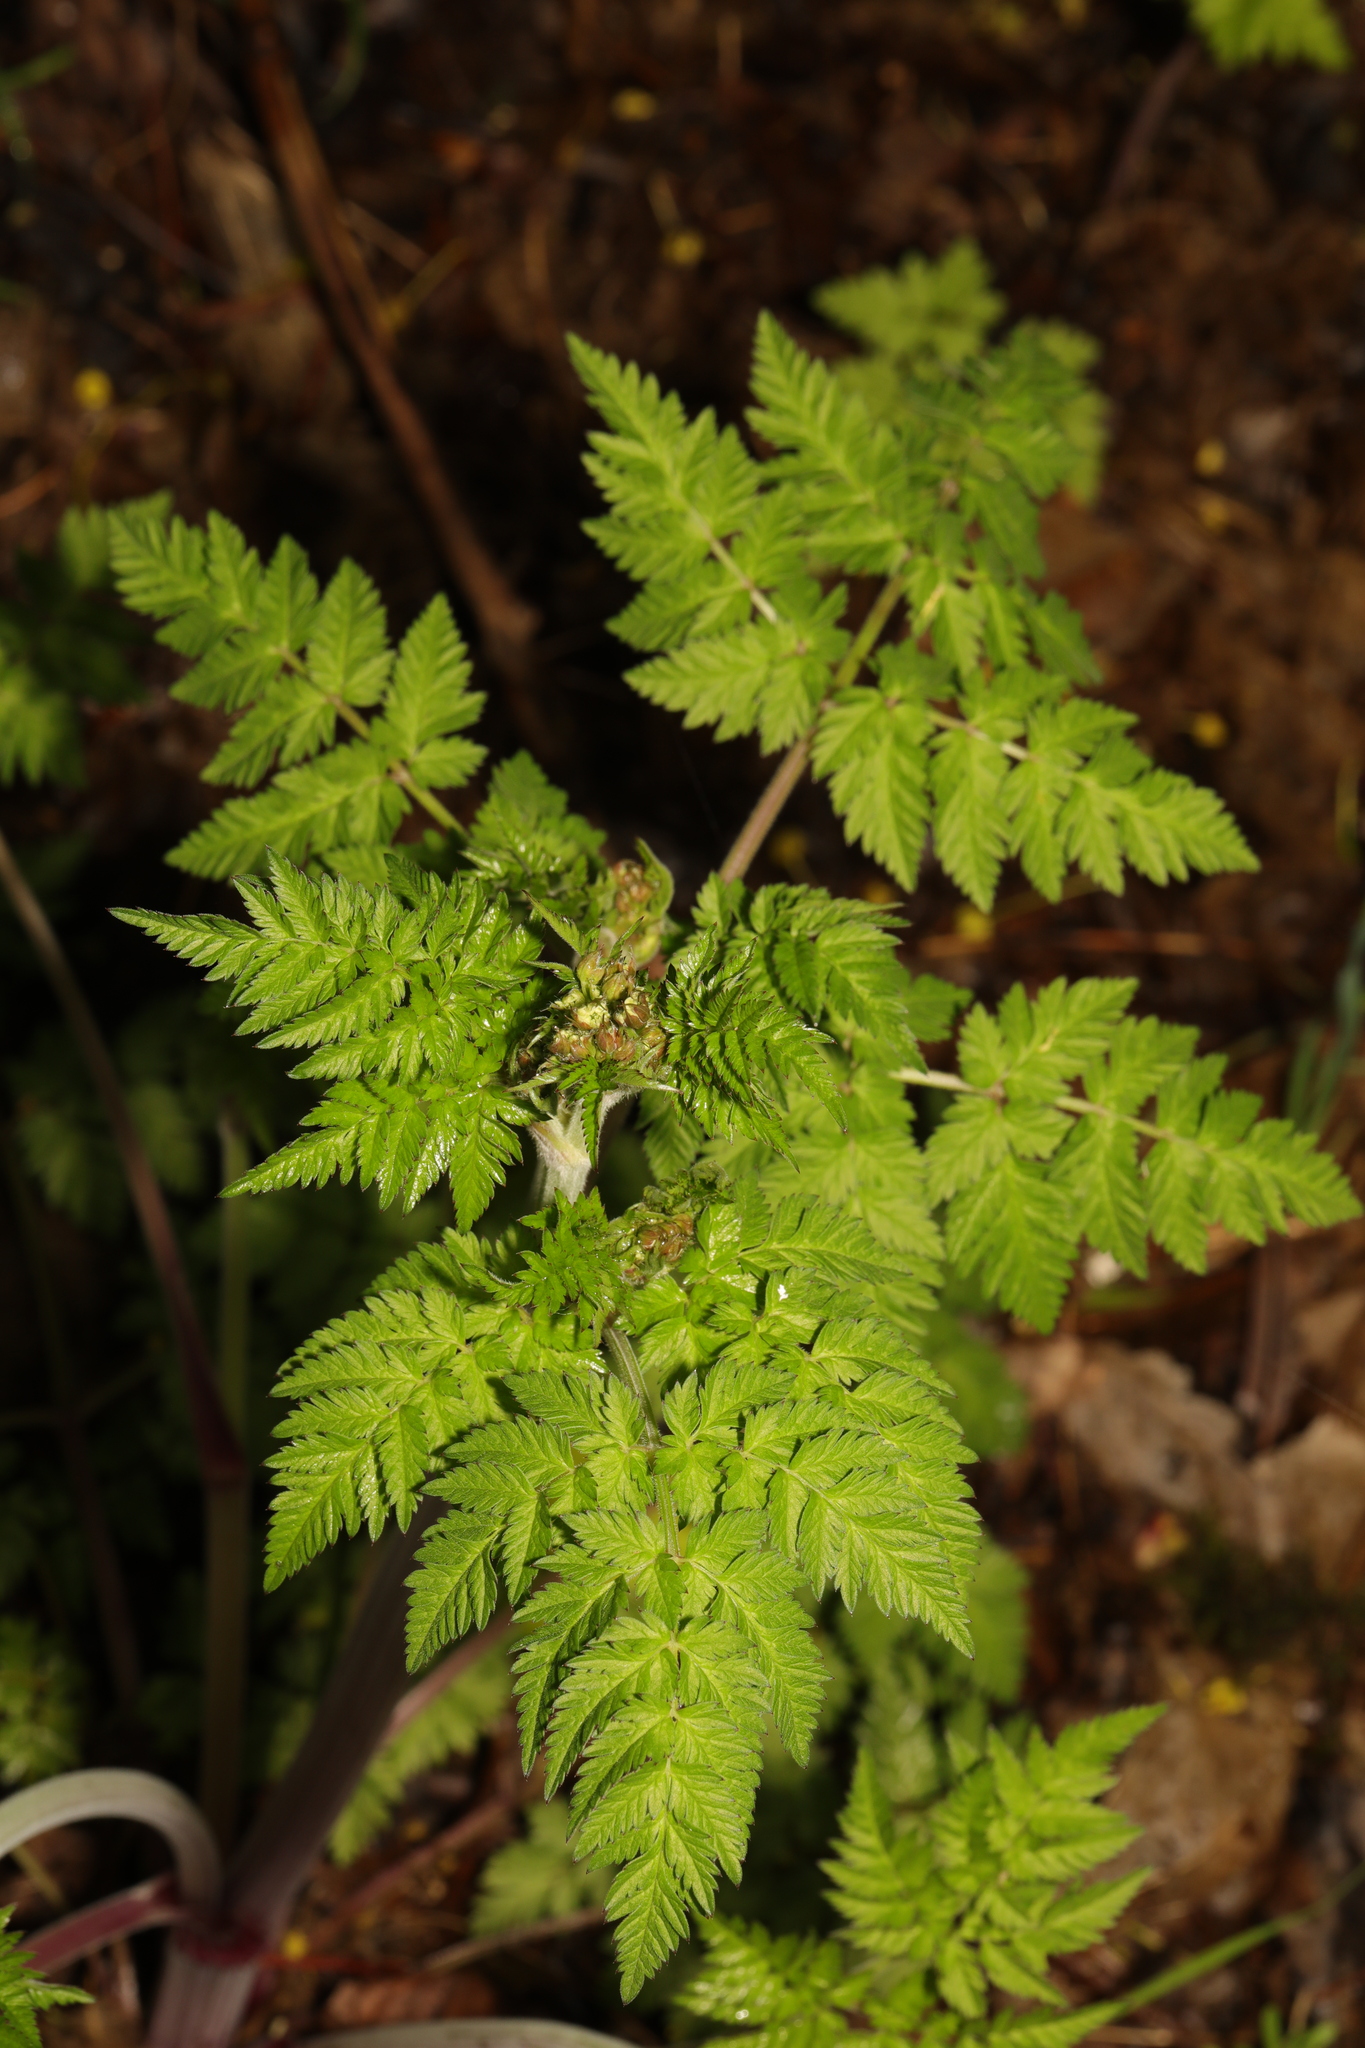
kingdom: Plantae
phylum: Tracheophyta
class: Magnoliopsida
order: Apiales
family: Apiaceae
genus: Anthriscus
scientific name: Anthriscus sylvestris
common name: Cow parsley
